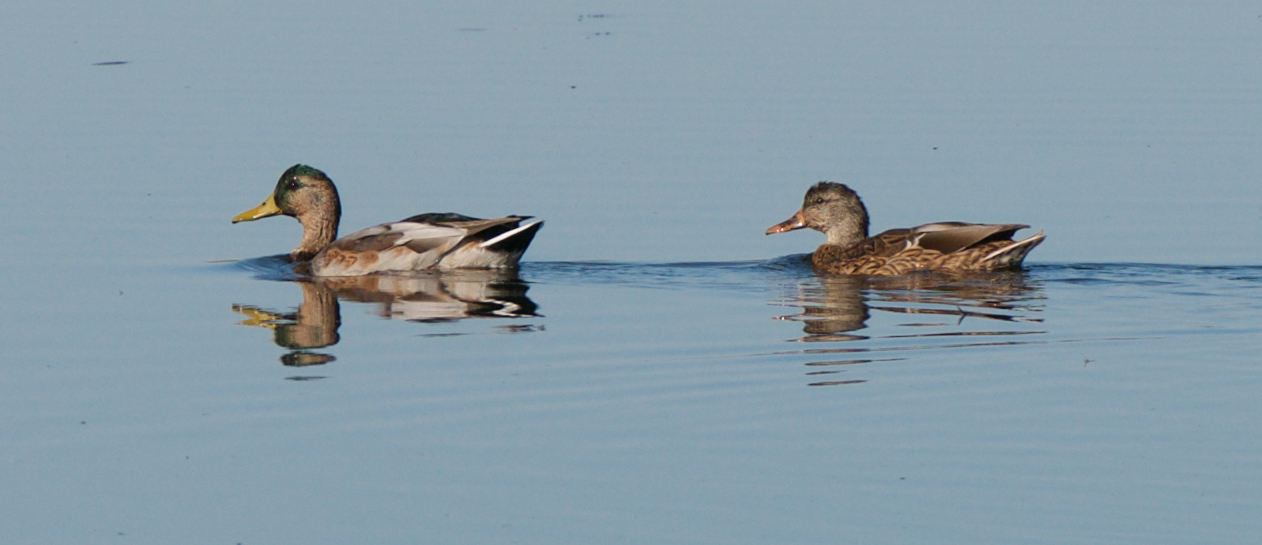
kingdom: Animalia
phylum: Chordata
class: Aves
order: Anseriformes
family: Anatidae
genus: Anas
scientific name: Anas platyrhynchos
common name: Mallard
